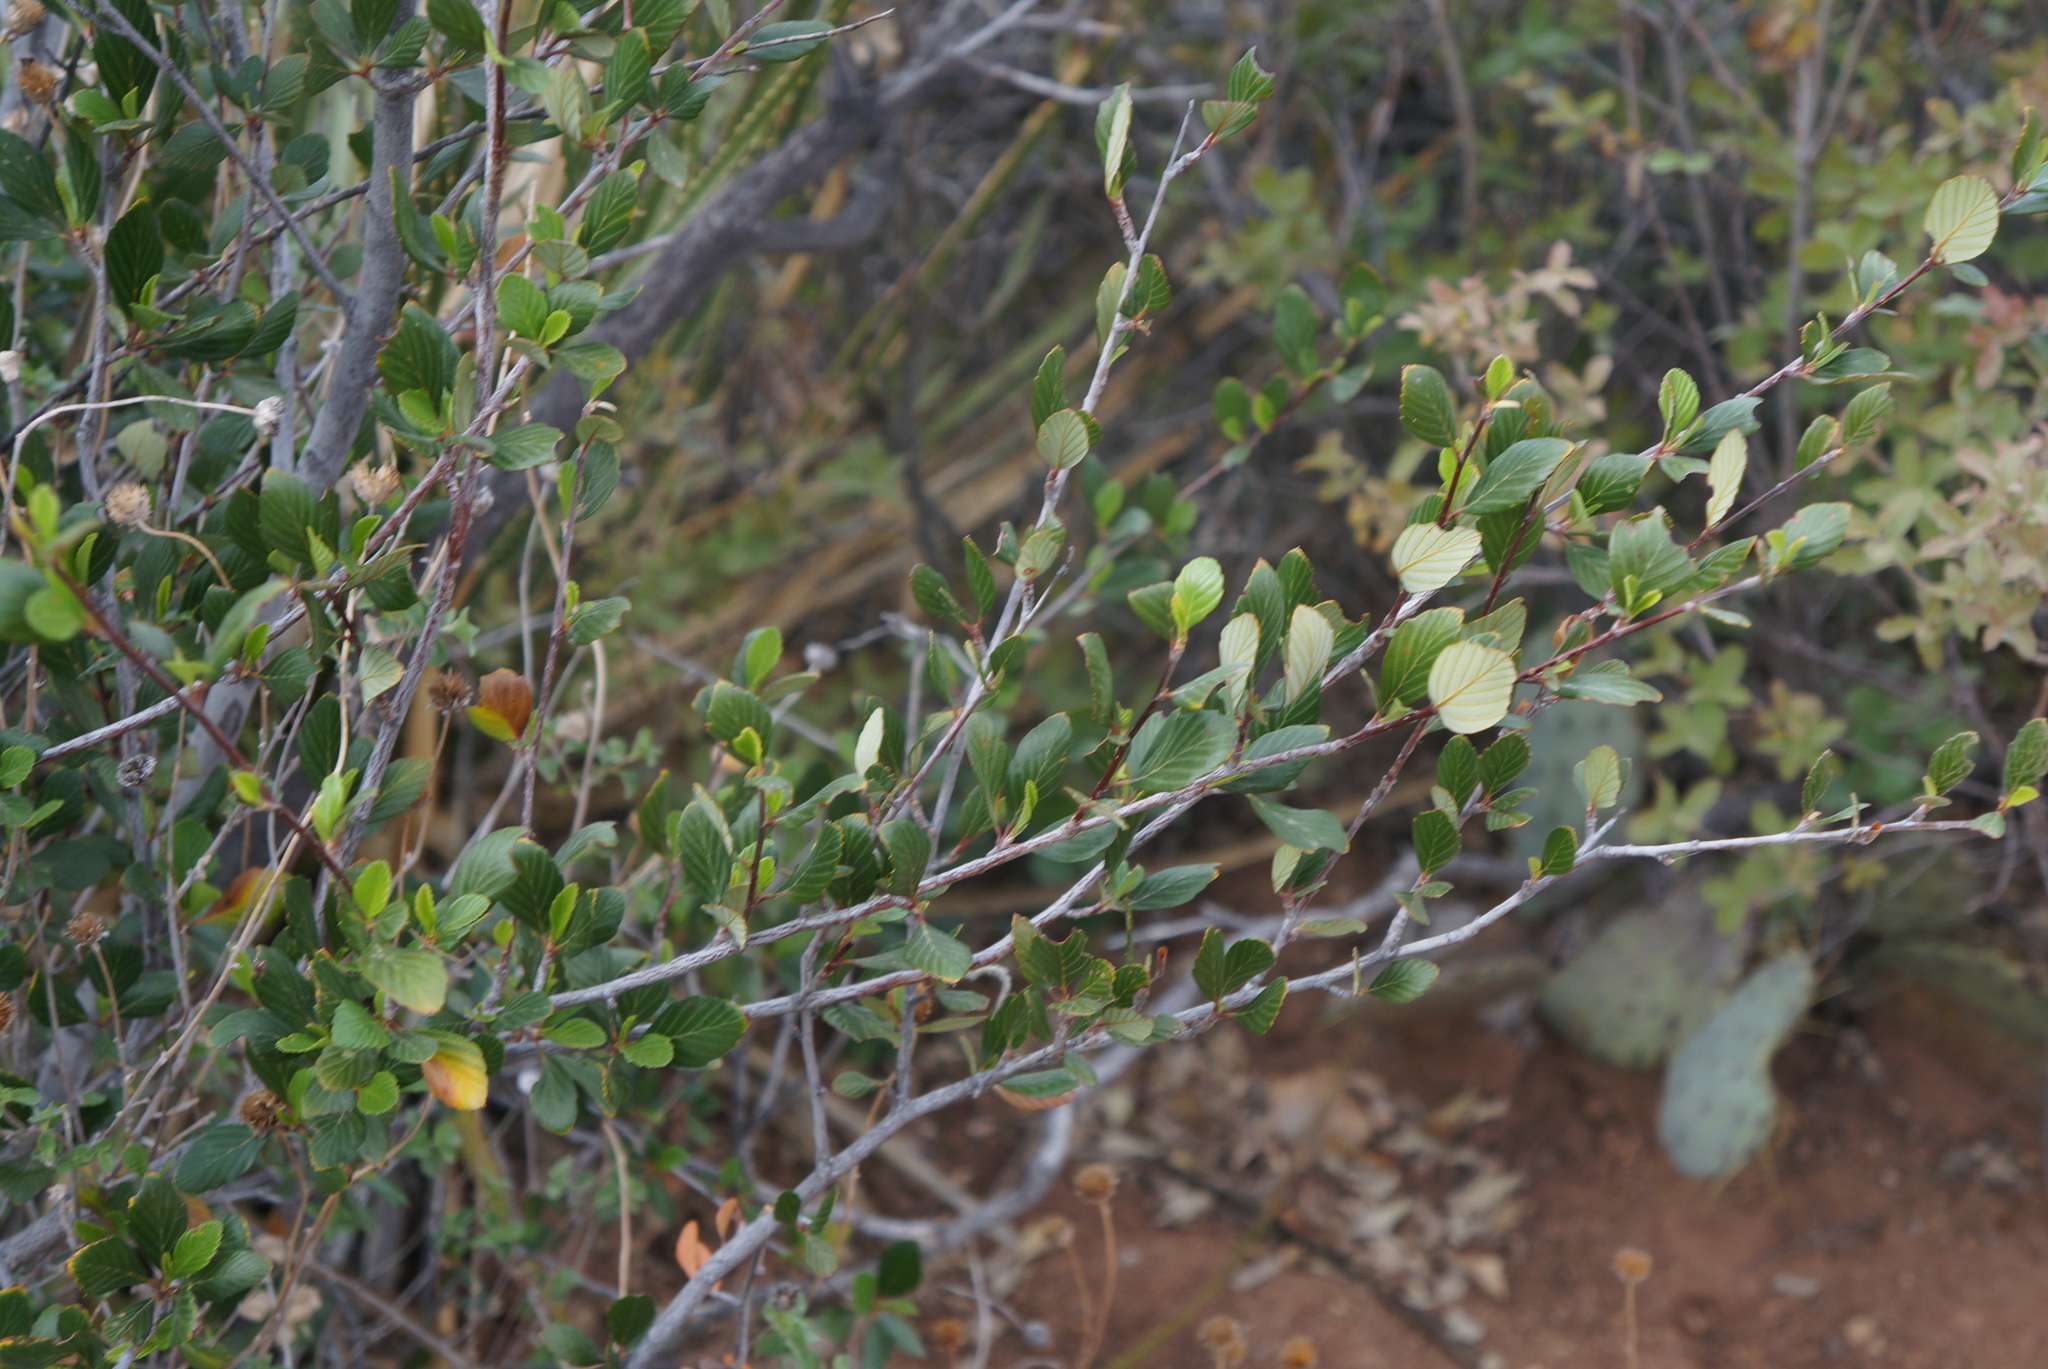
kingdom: Plantae
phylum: Tracheophyta
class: Magnoliopsida
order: Rosales
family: Rosaceae
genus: Cercocarpus
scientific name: Cercocarpus montanus
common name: Alder-leaf cercocarpus
